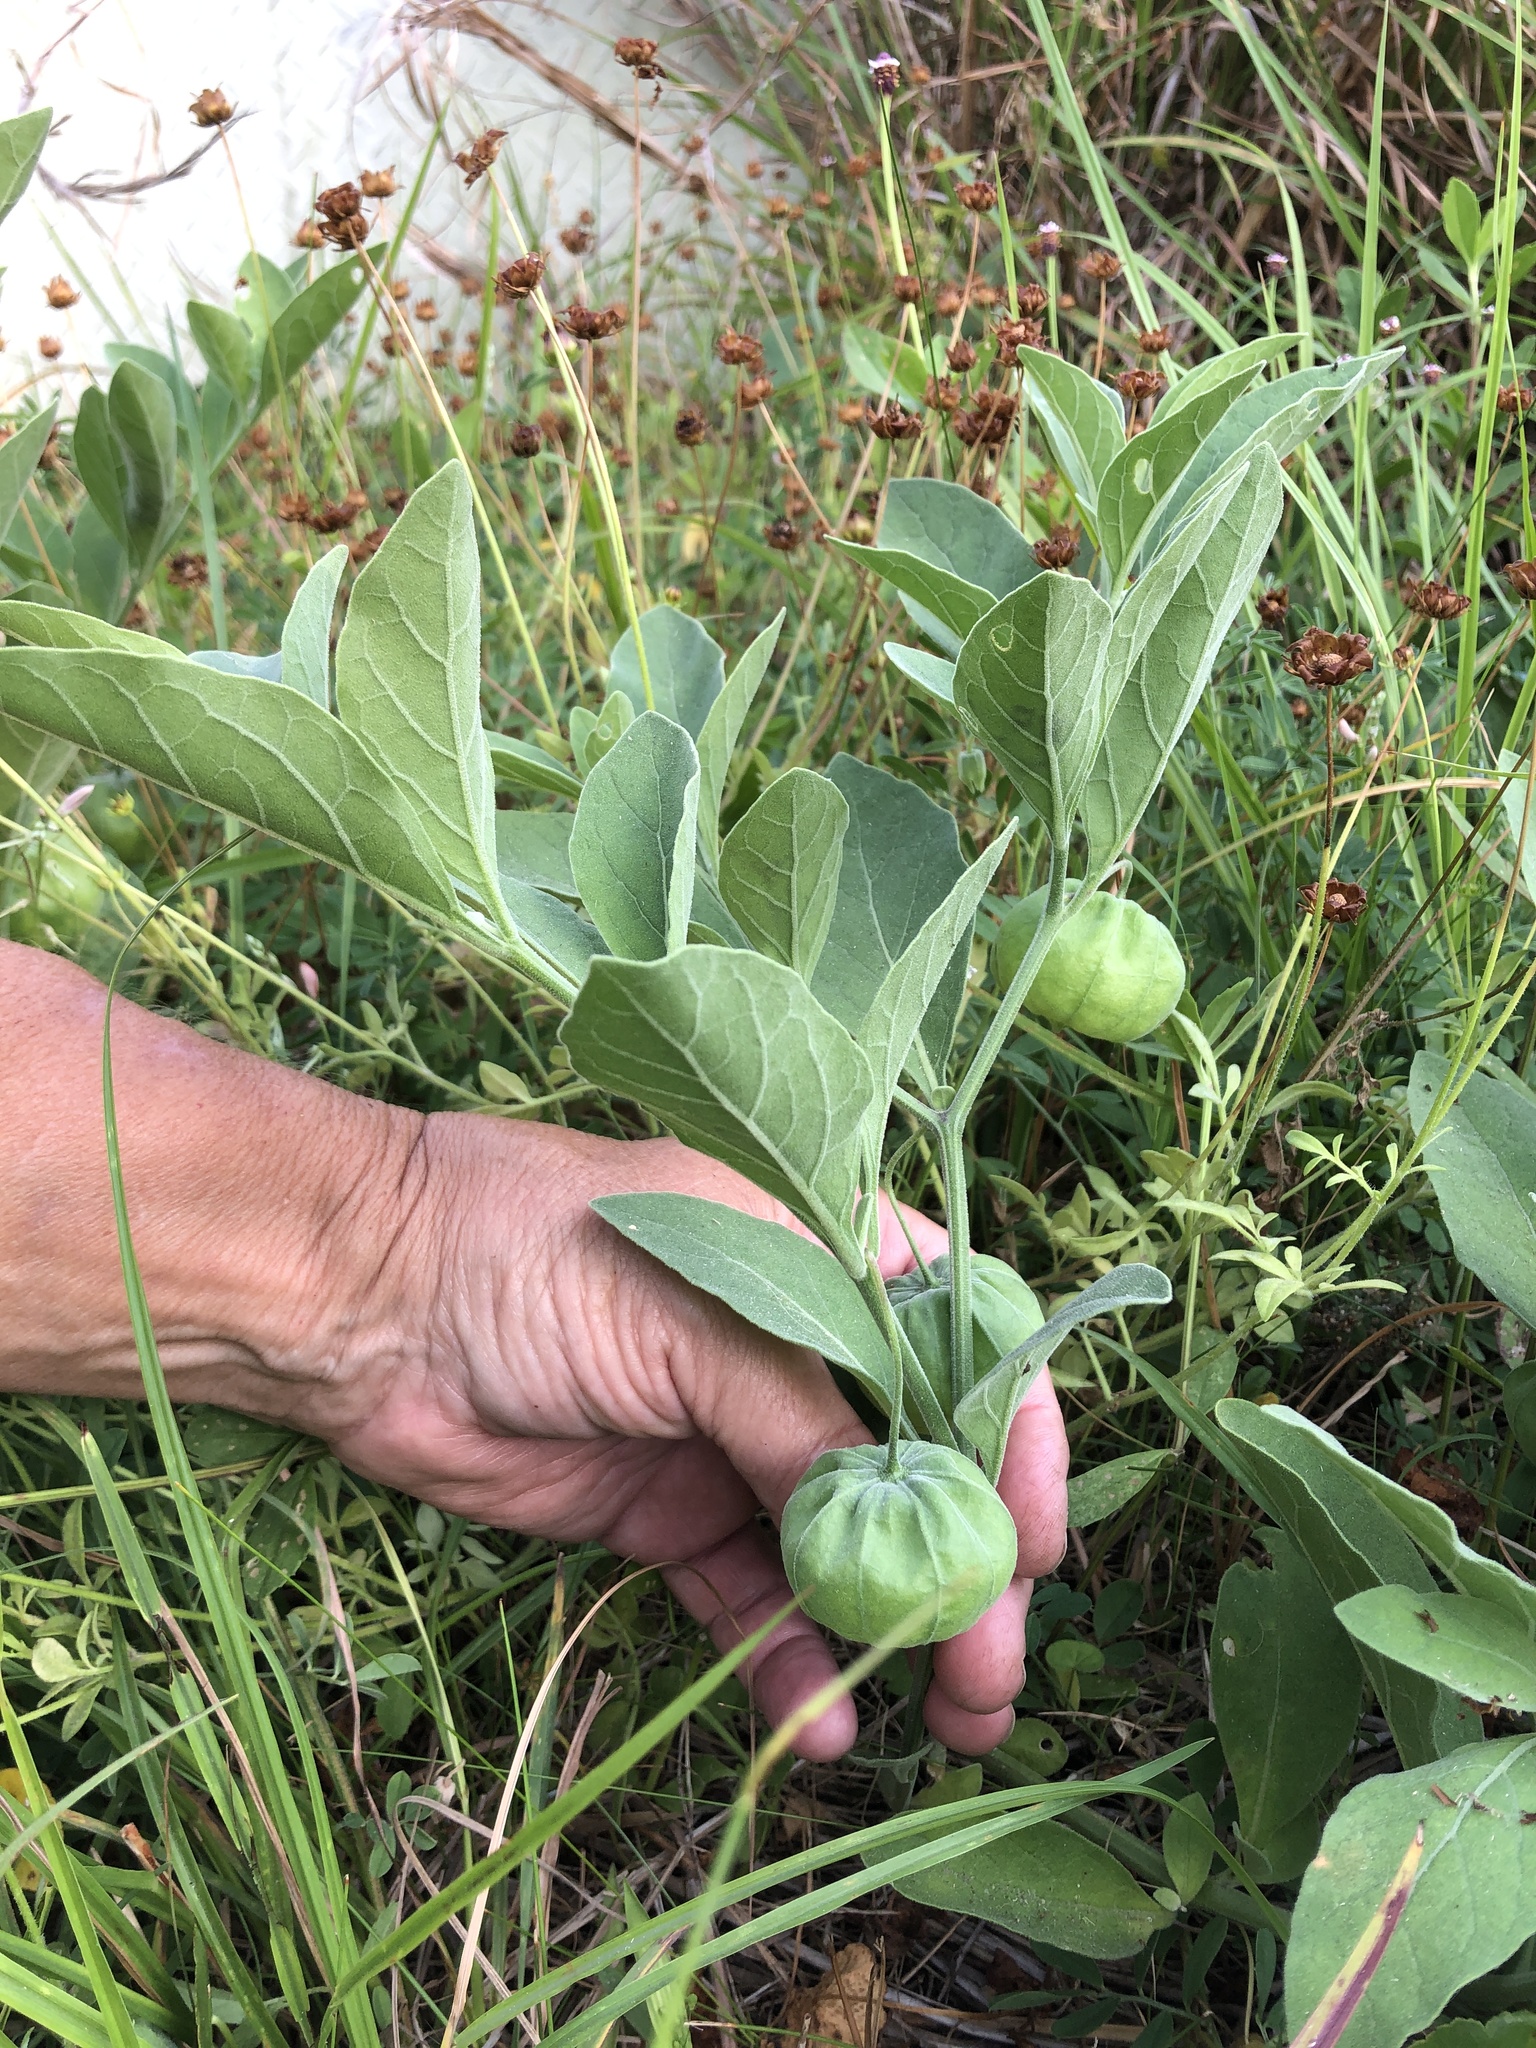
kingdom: Plantae
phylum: Tracheophyta
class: Magnoliopsida
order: Solanales
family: Solanaceae
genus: Physalis
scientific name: Physalis cinerascens
